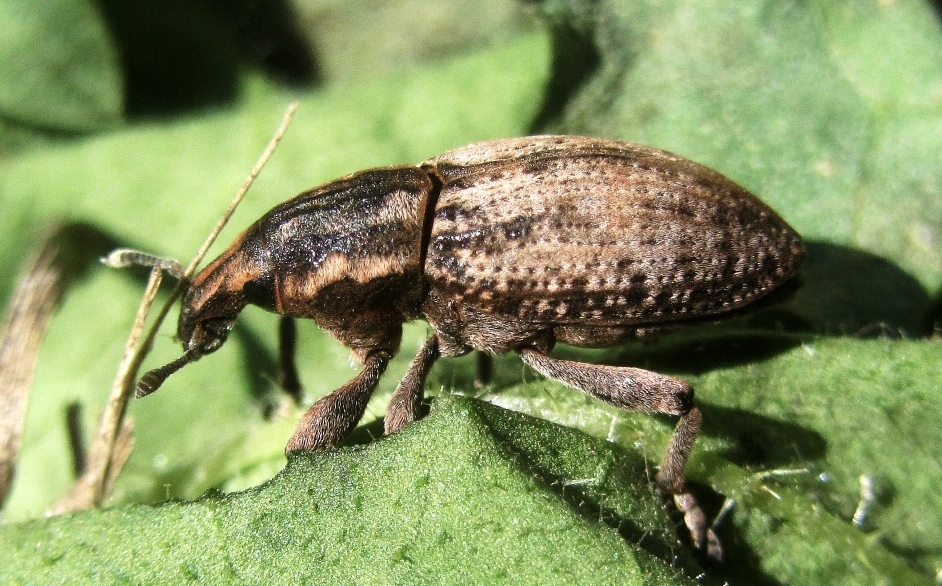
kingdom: Animalia
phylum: Arthropoda
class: Insecta
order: Coleoptera
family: Curculionidae
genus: Pseudocleonus
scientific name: Pseudocleonus cinereus
